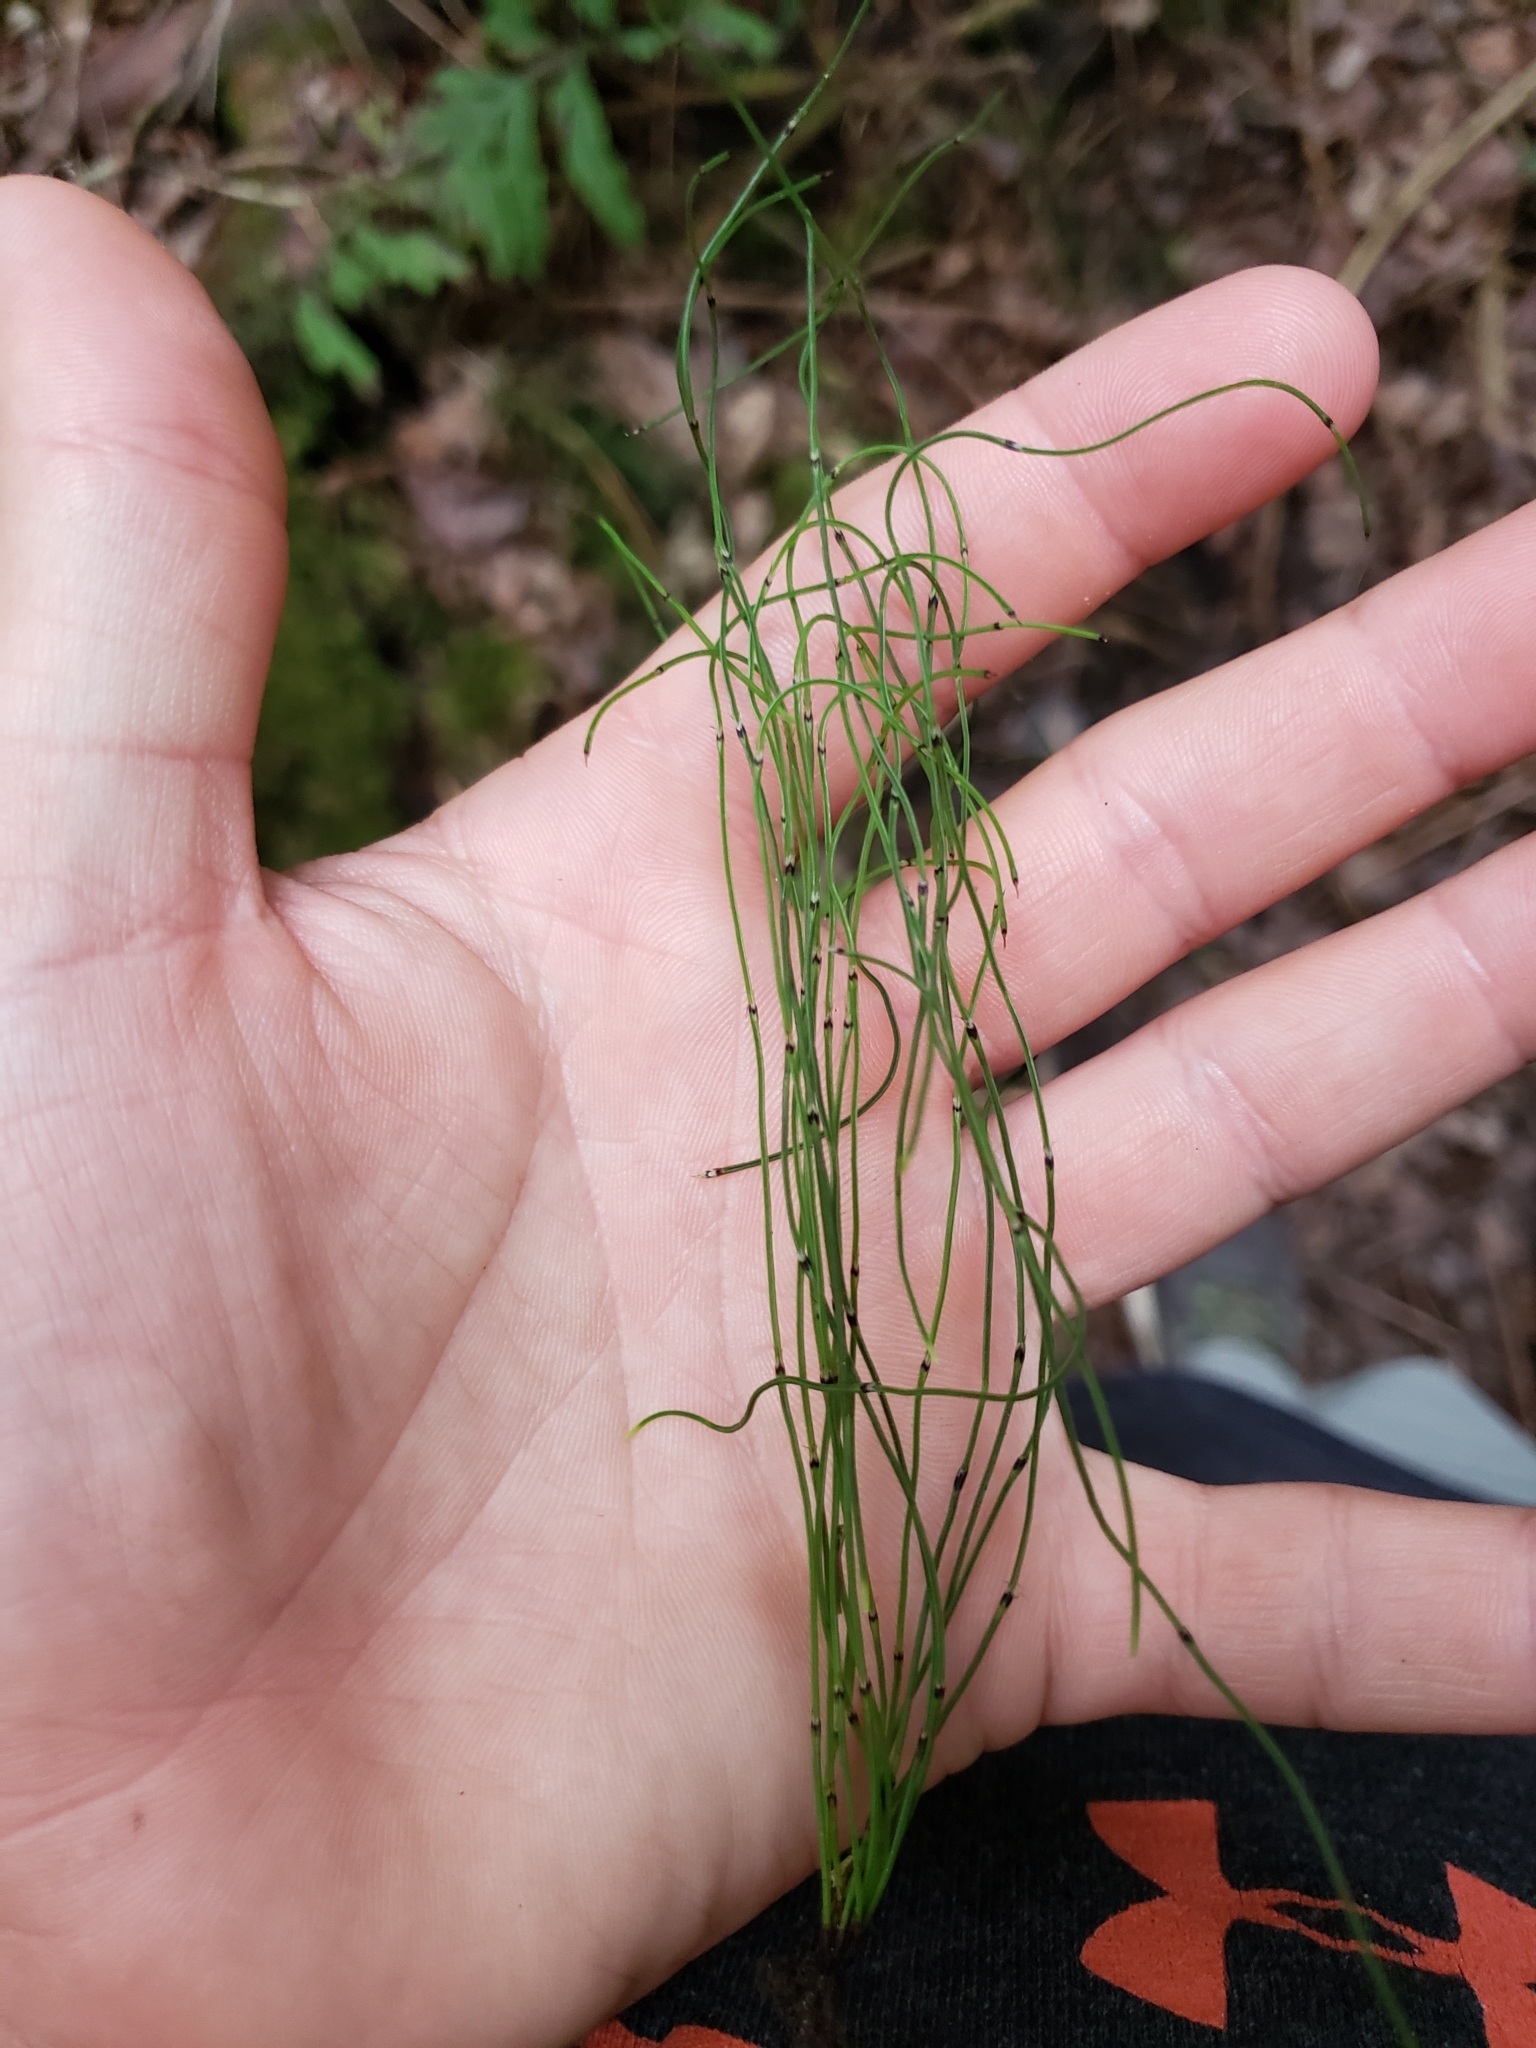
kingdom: Plantae
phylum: Tracheophyta
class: Polypodiopsida
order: Equisetales
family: Equisetaceae
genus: Equisetum
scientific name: Equisetum scirpoides
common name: Delicate horsetail
